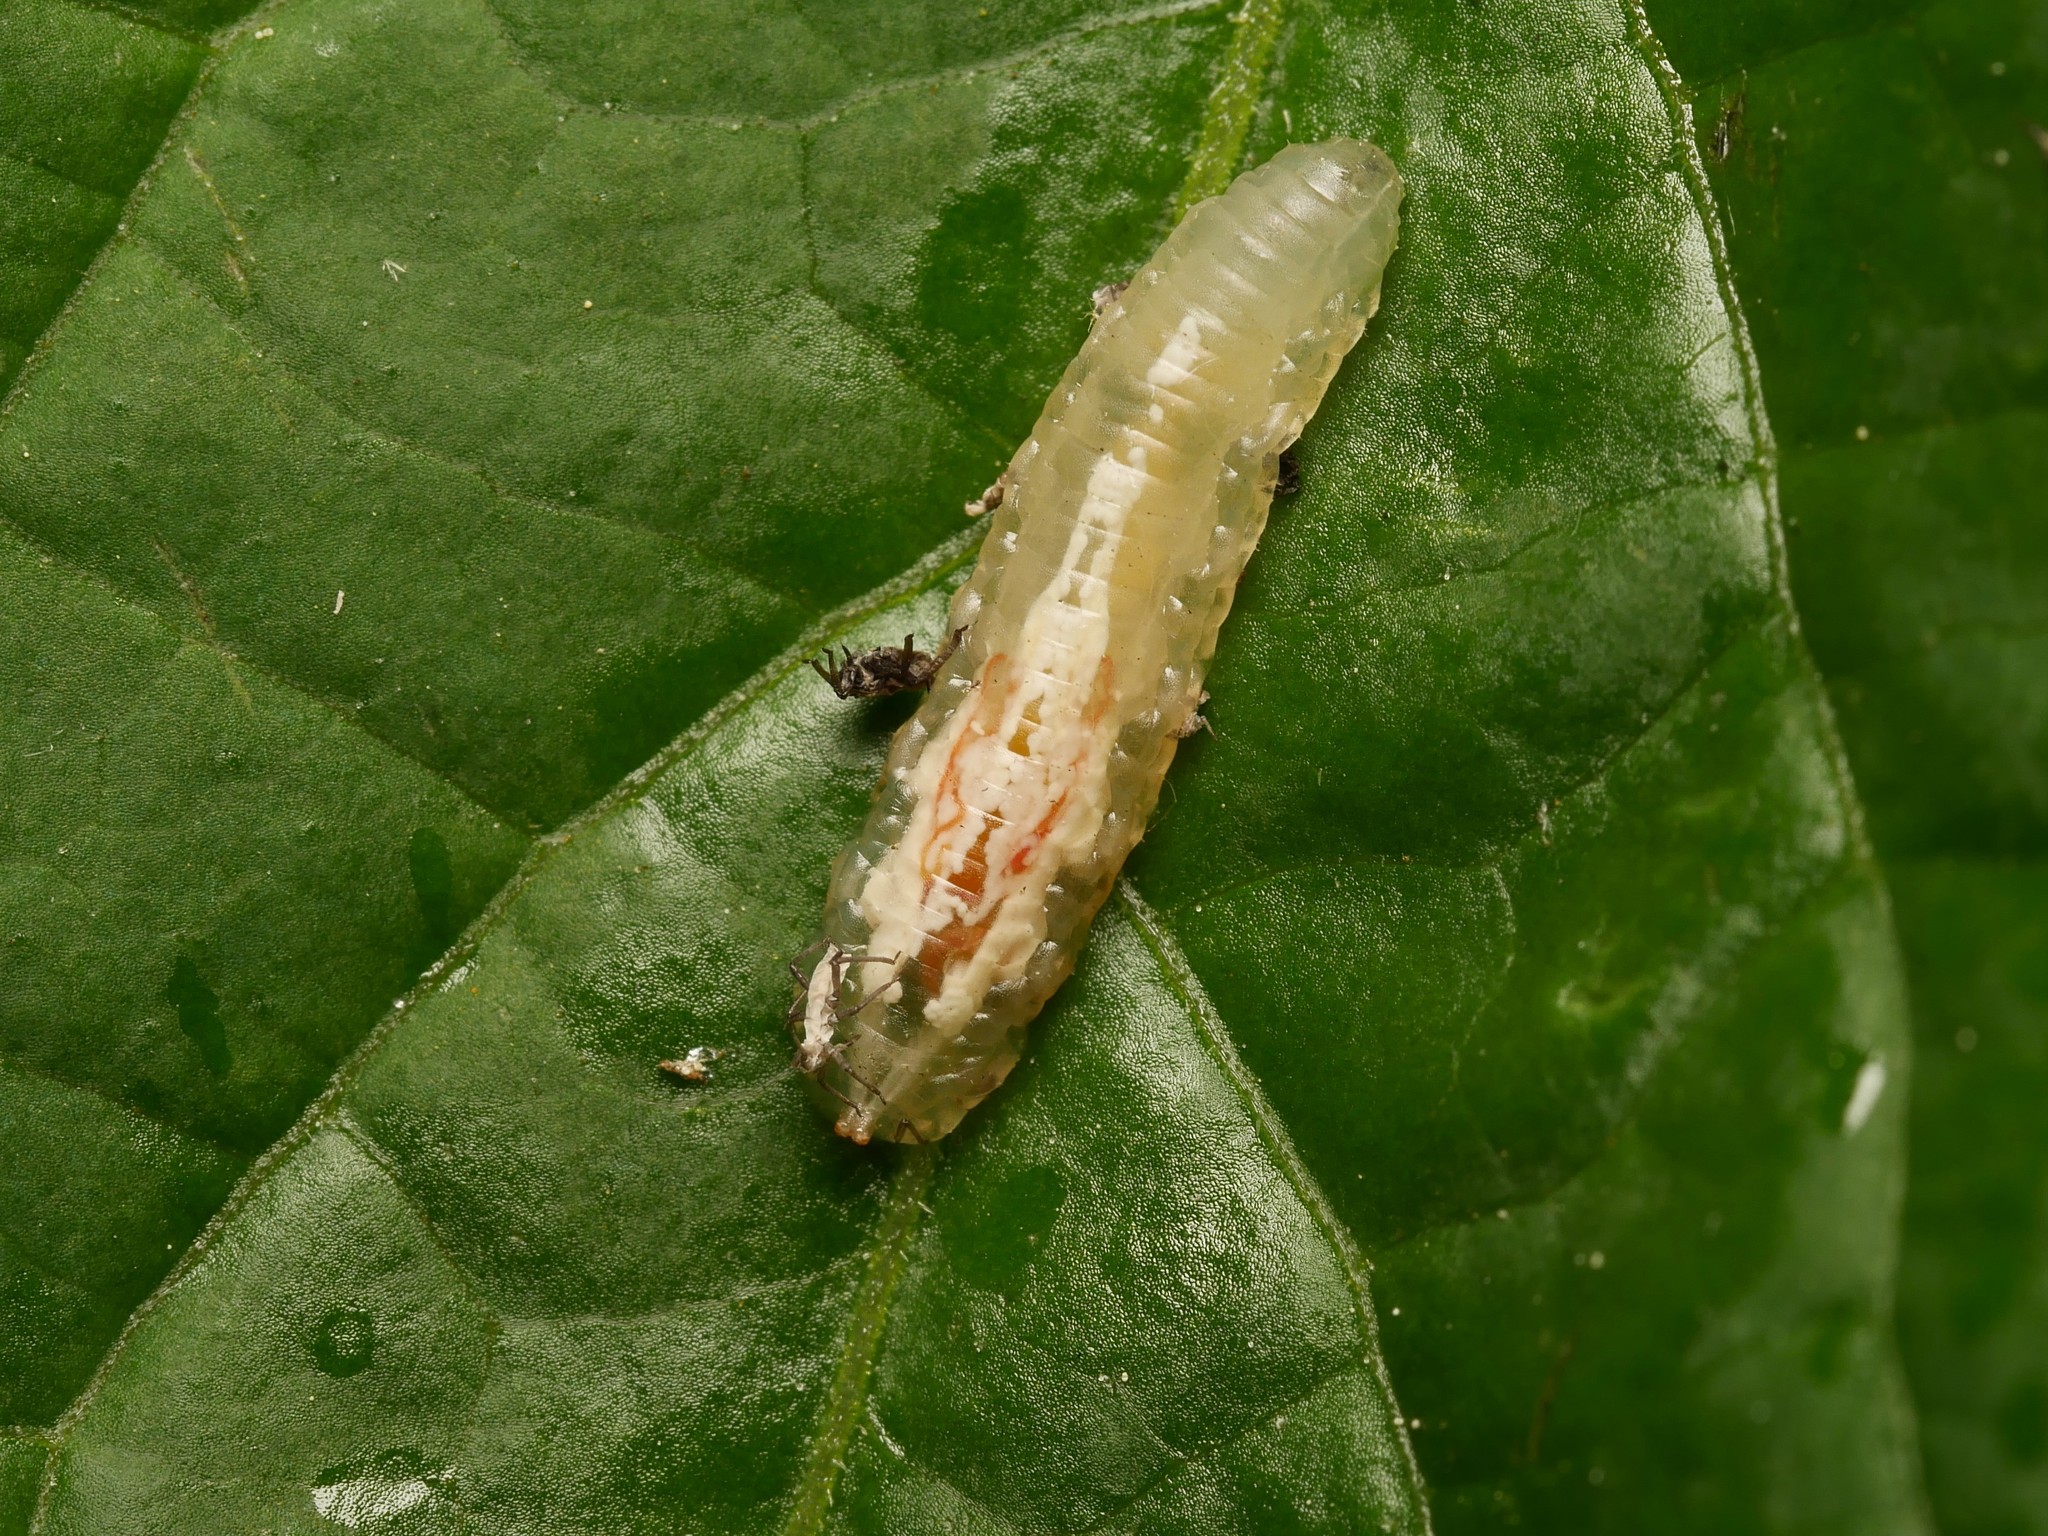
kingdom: Animalia
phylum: Arthropoda
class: Insecta
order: Diptera
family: Syrphidae
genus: Episyrphus
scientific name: Episyrphus balteatus
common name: Marmalade hoverfly
